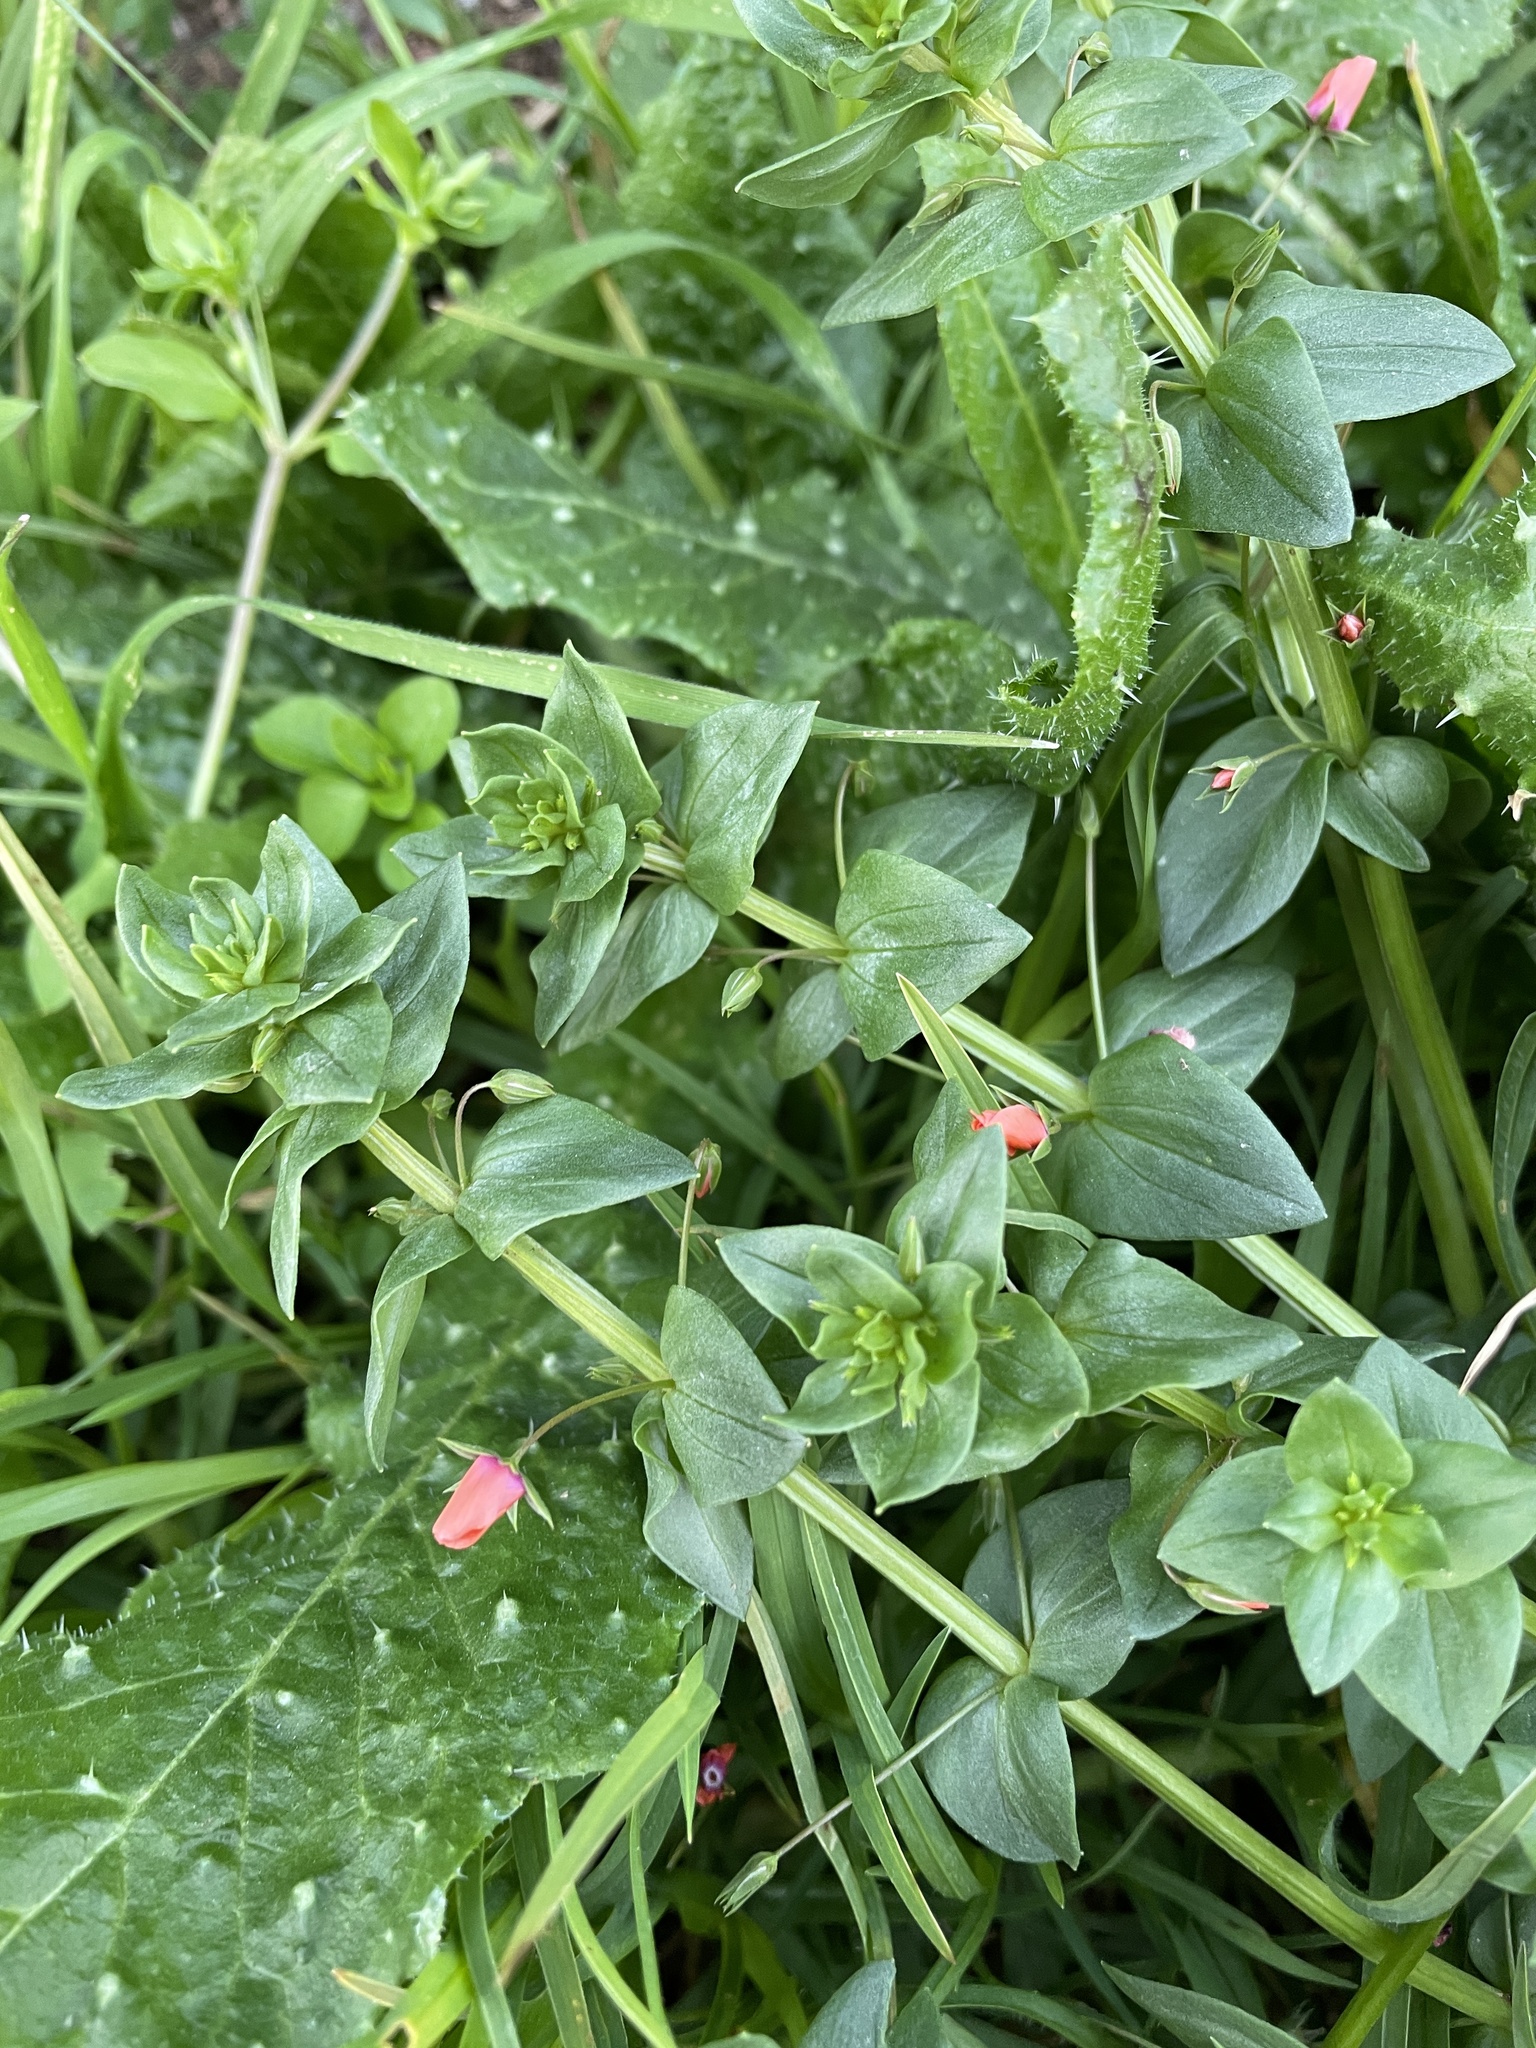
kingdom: Plantae
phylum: Tracheophyta
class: Magnoliopsida
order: Ericales
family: Primulaceae
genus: Lysimachia
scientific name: Lysimachia arvensis
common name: Scarlet pimpernel
